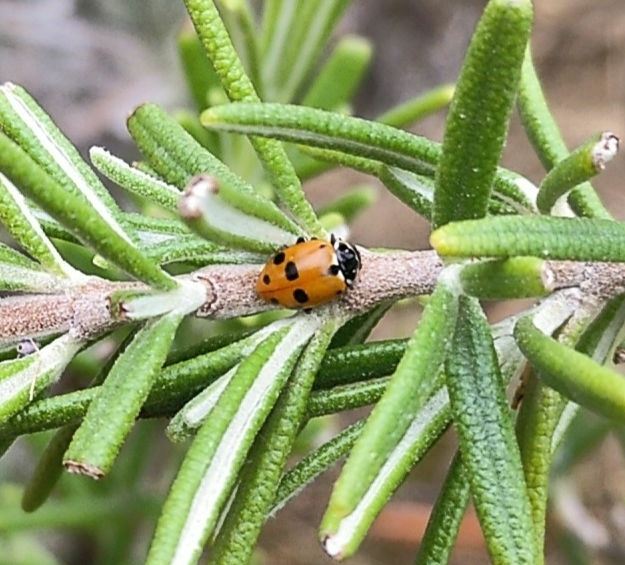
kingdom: Animalia
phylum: Arthropoda
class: Insecta
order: Coleoptera
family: Coccinellidae
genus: Hippodamia
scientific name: Hippodamia variegata
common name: Ladybird beetle
